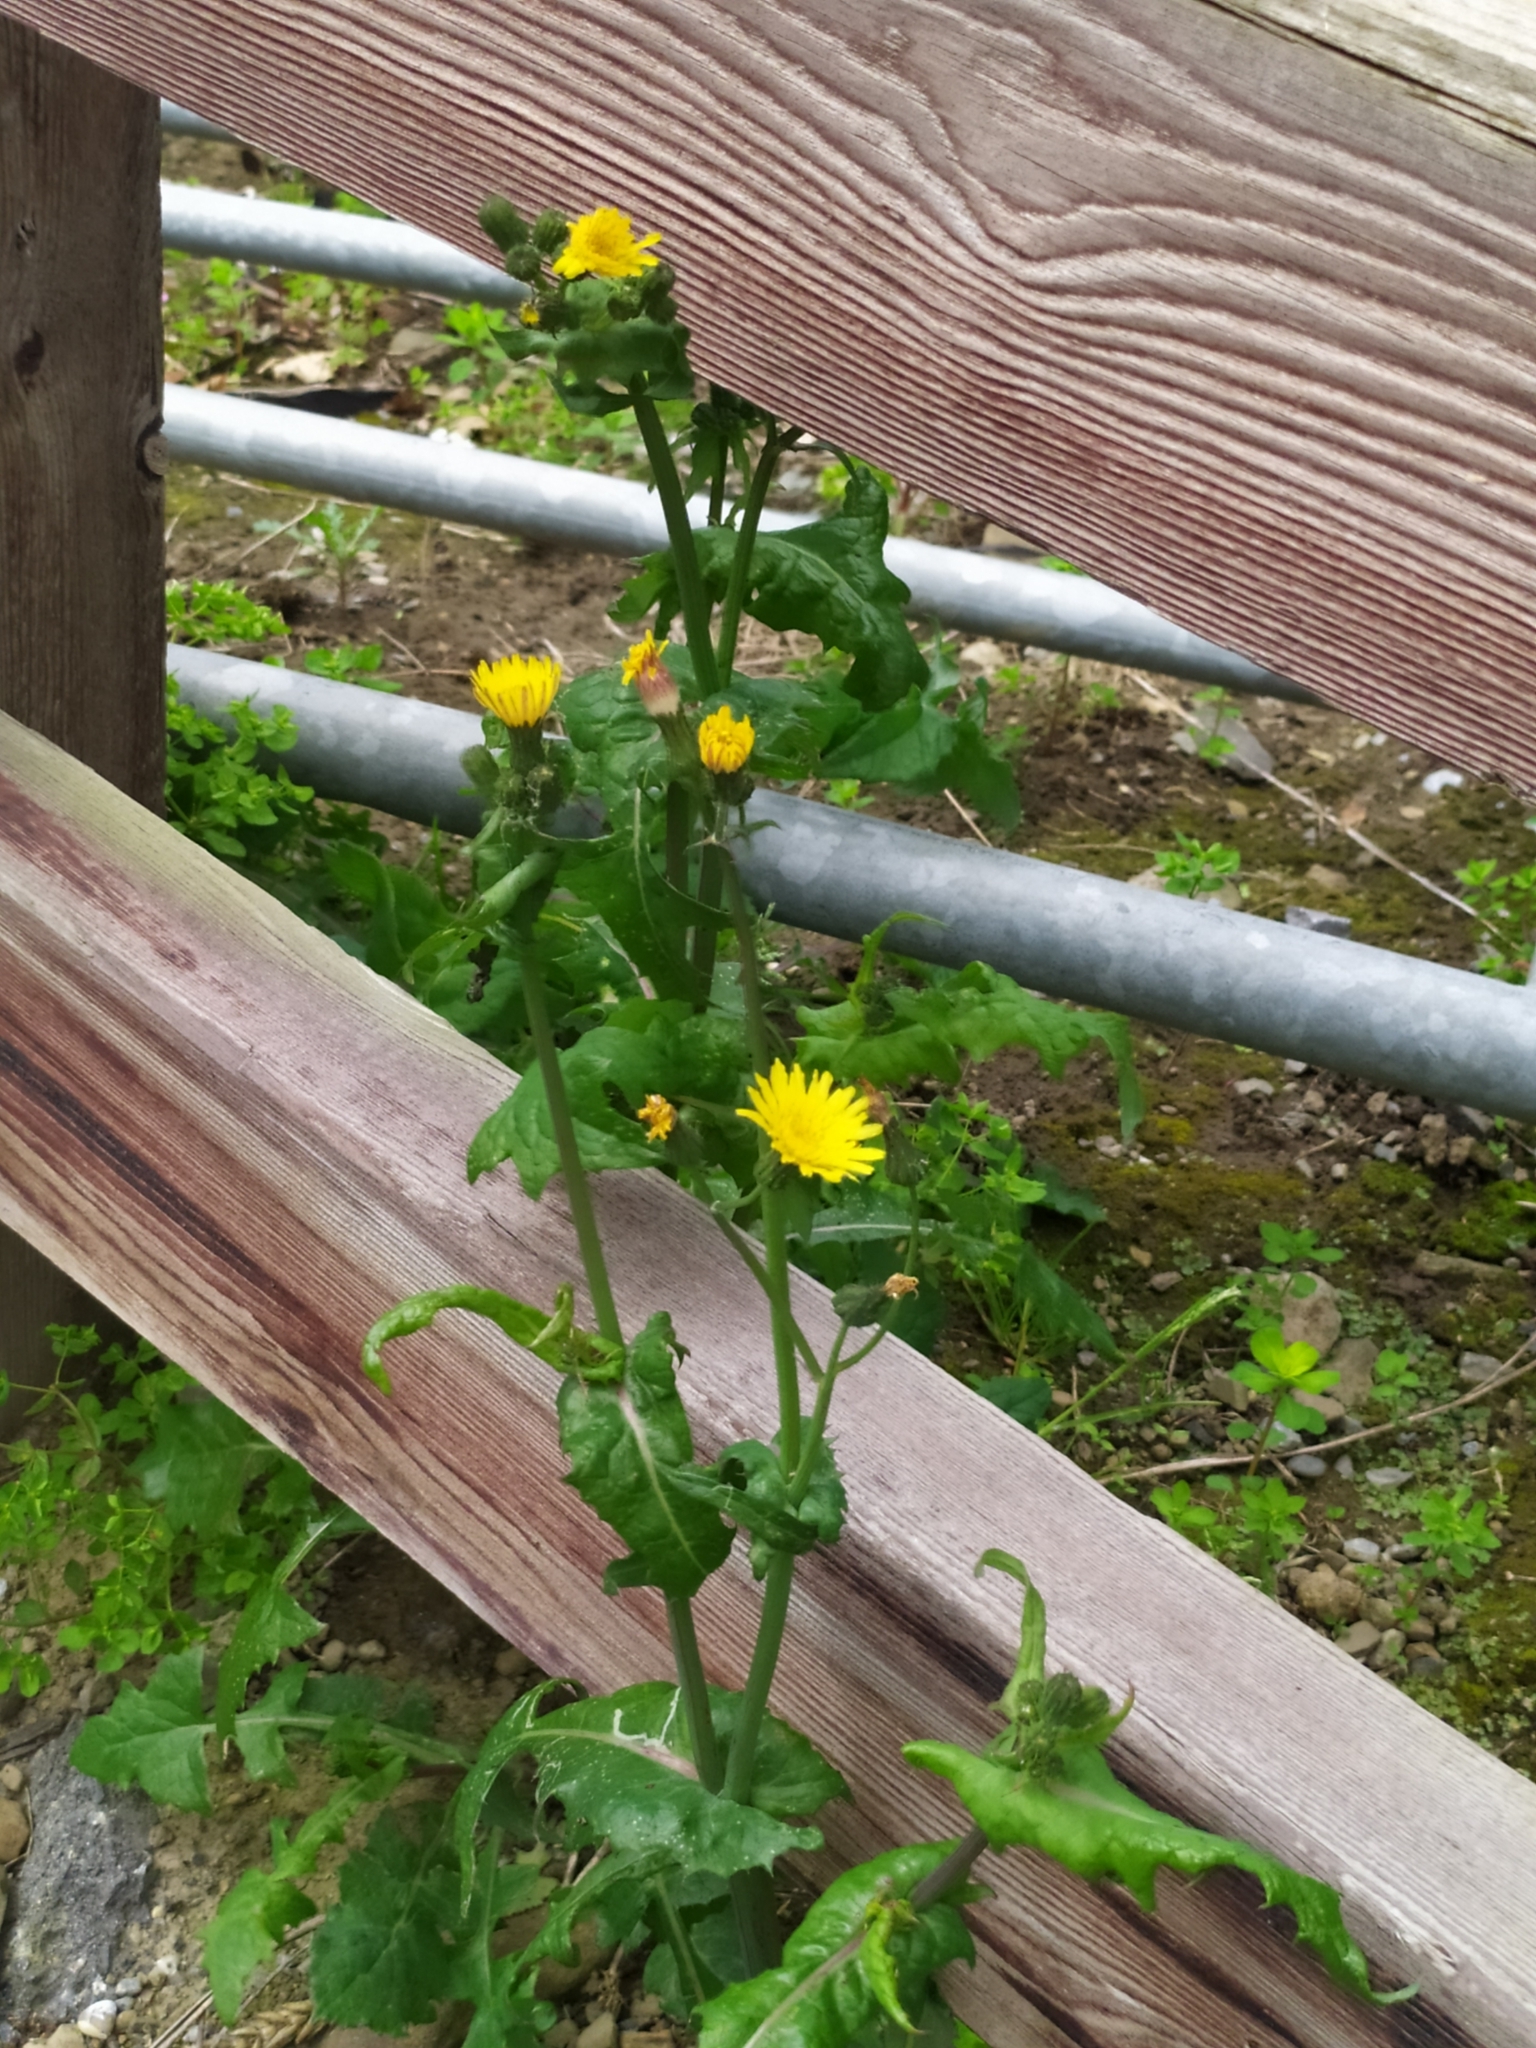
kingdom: Plantae
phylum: Tracheophyta
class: Magnoliopsida
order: Asterales
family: Asteraceae
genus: Sonchus
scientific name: Sonchus oleraceus
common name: Common sowthistle
